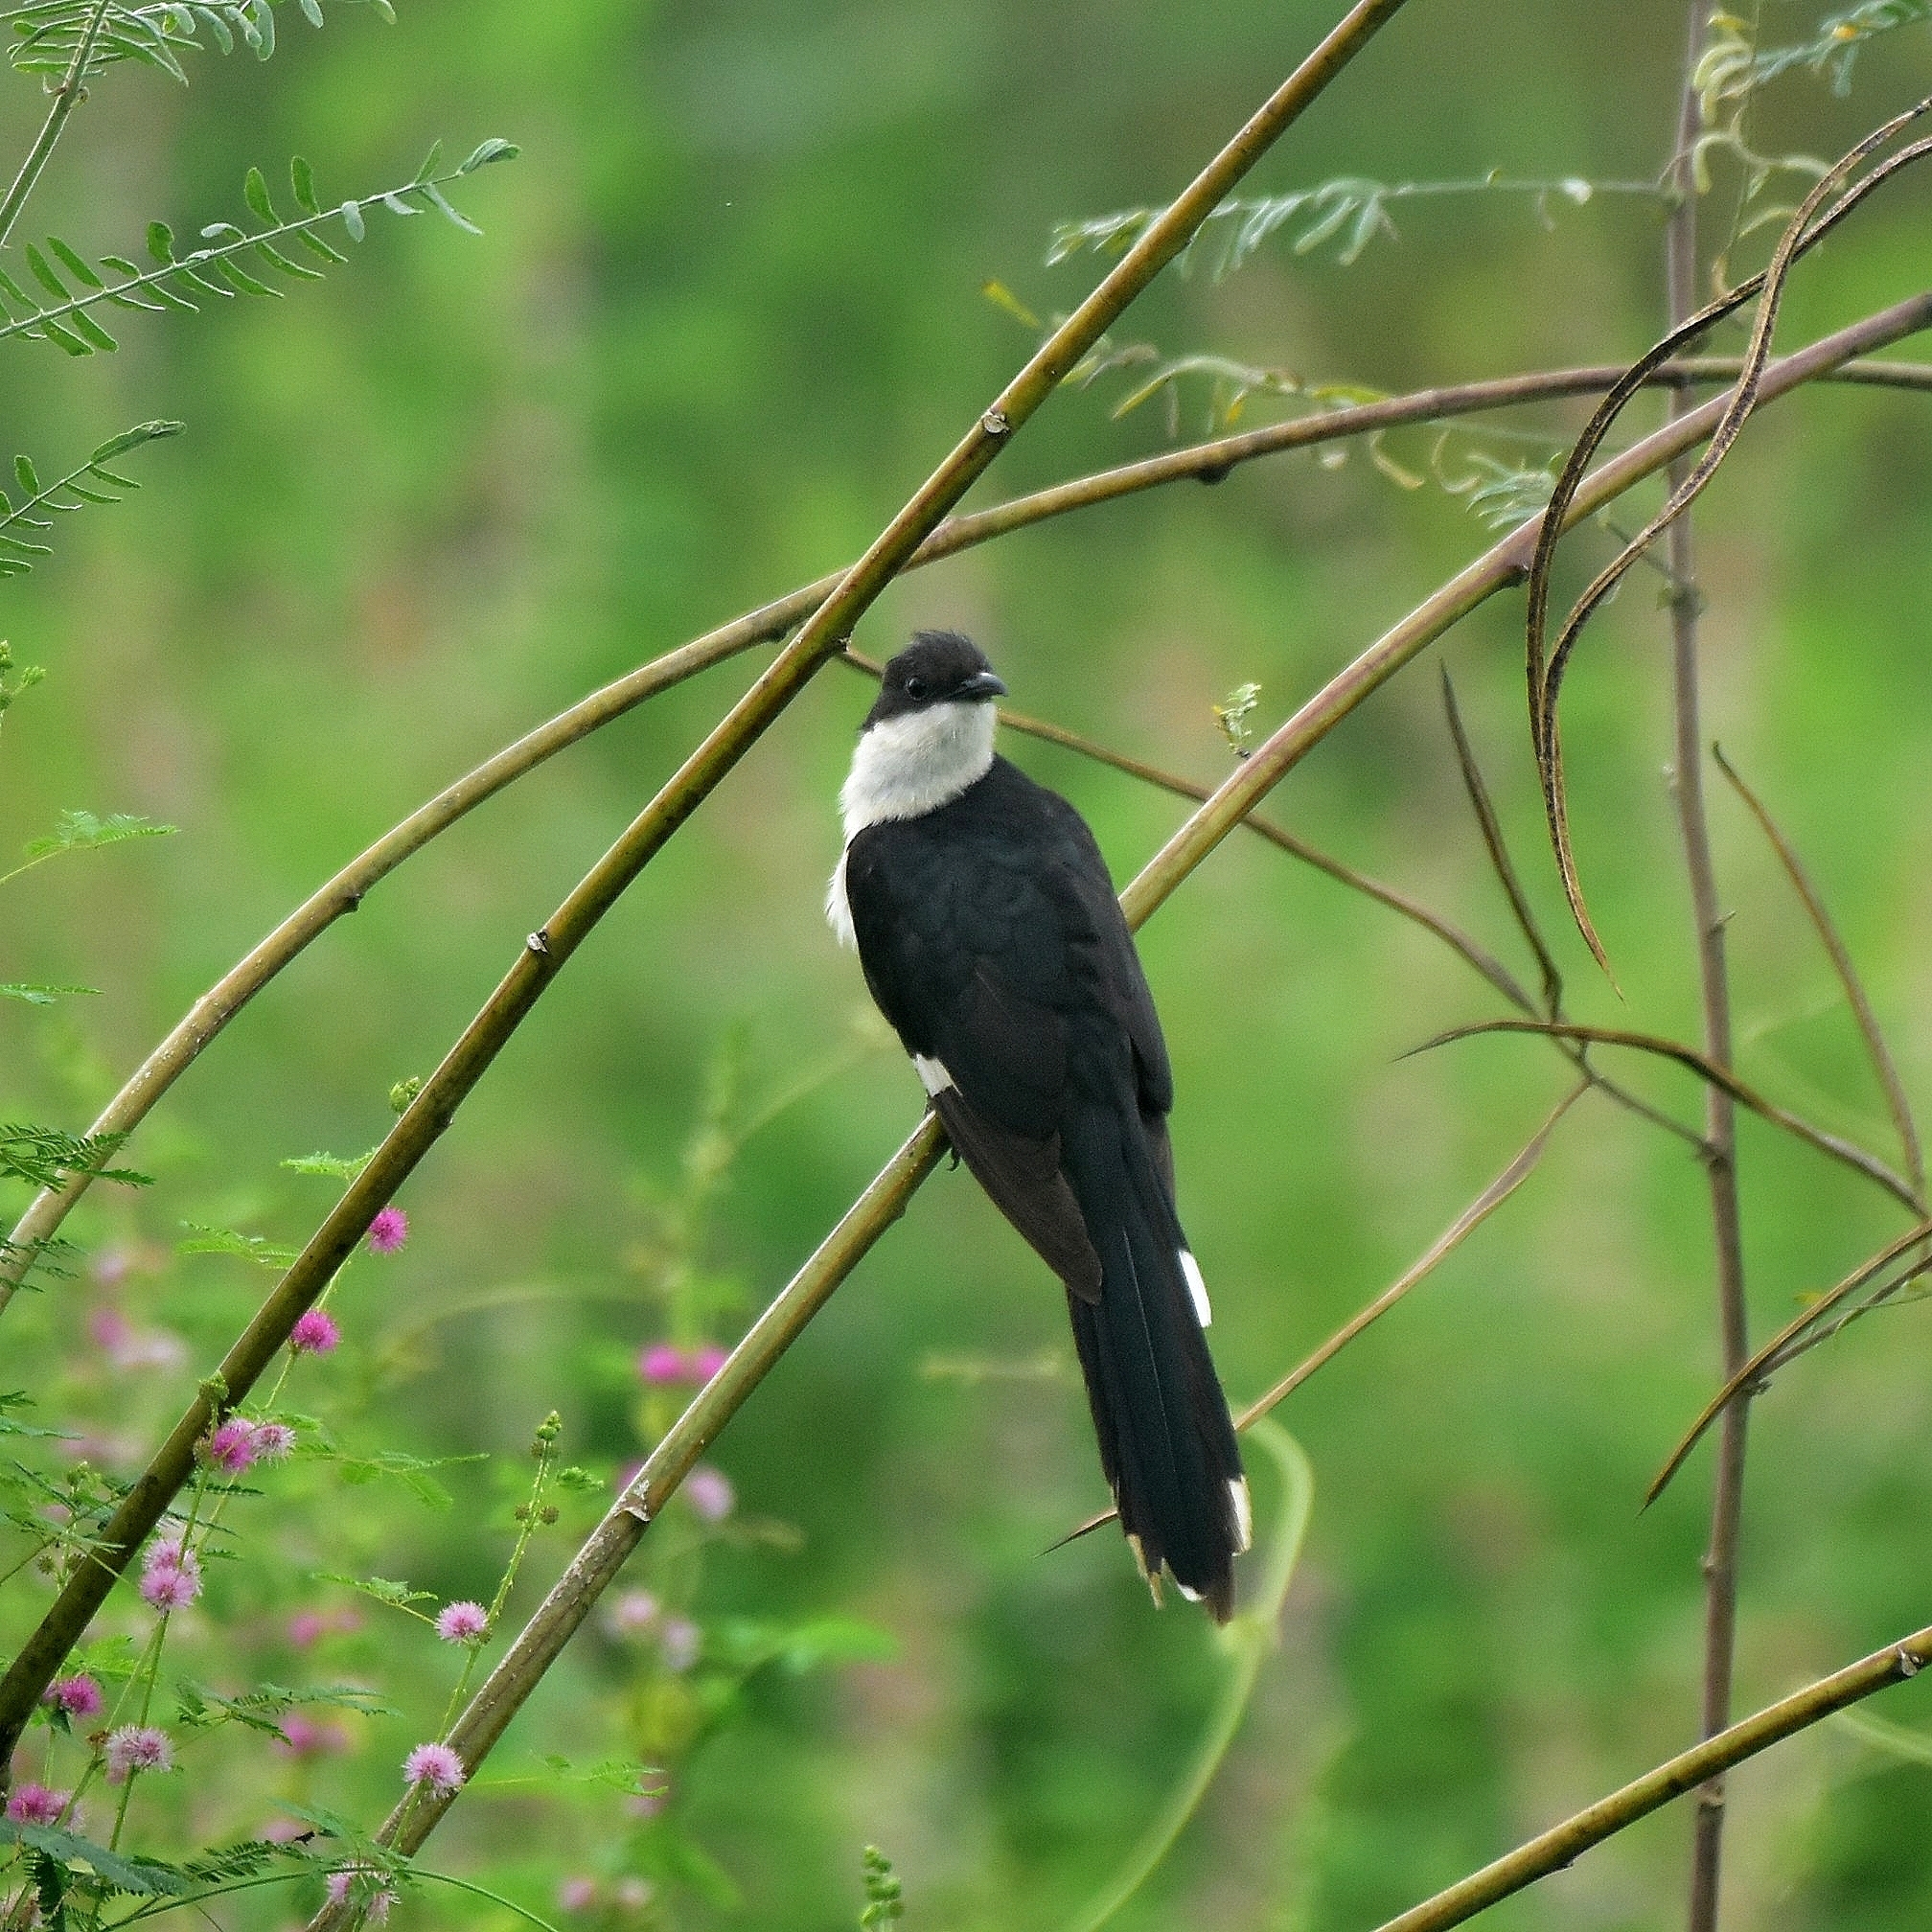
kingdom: Animalia
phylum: Chordata
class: Aves
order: Cuculiformes
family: Cuculidae
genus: Clamator
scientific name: Clamator jacobinus
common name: Jacobin cuckoo
